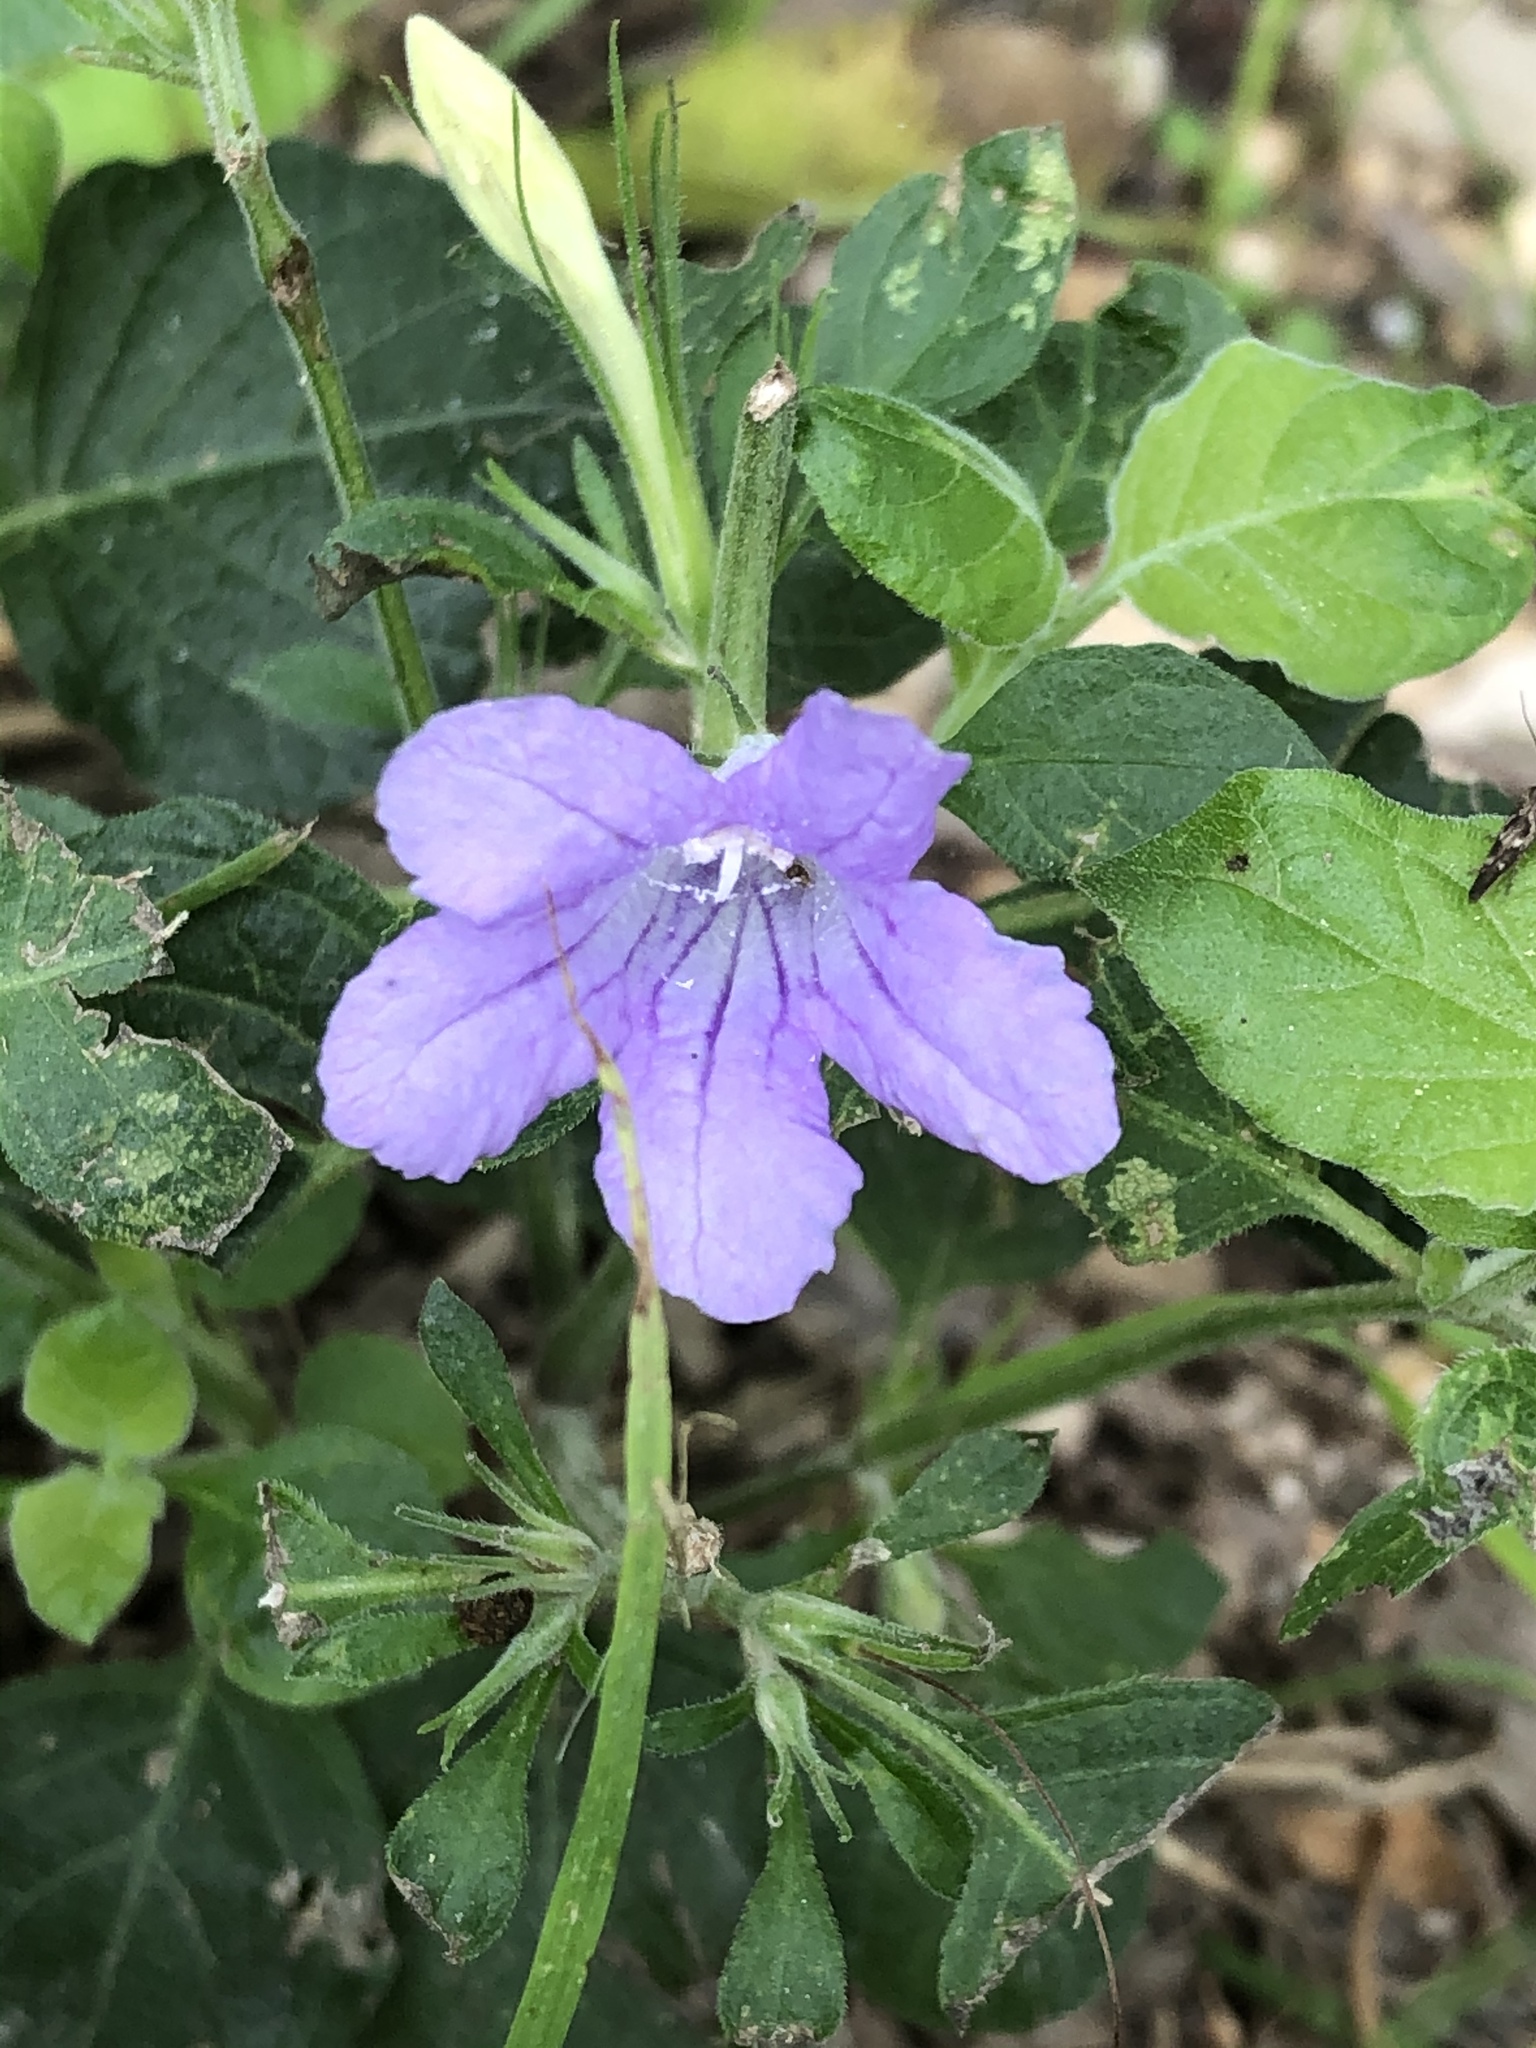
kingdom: Plantae
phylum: Tracheophyta
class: Magnoliopsida
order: Lamiales
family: Acanthaceae
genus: Ruellia
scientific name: Ruellia drummondiana
